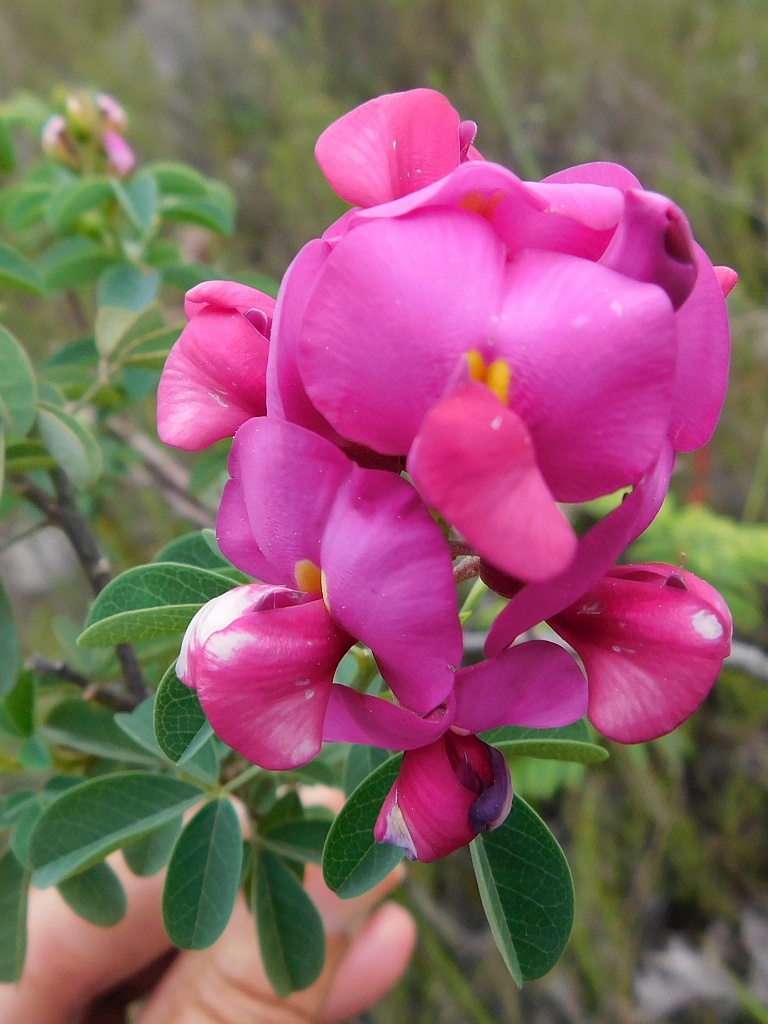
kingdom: Plantae
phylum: Tracheophyta
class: Magnoliopsida
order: Fabales
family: Fabaceae
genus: Hypocalyptus
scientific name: Hypocalyptus coluteoides
